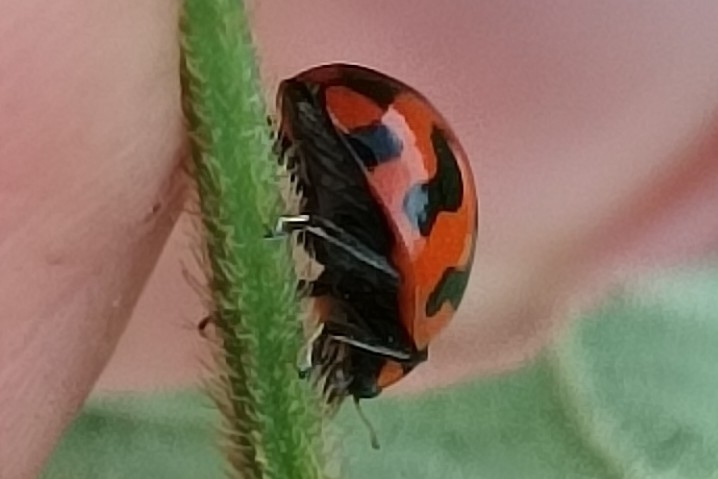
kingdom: Animalia
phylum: Arthropoda
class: Insecta
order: Coleoptera
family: Coccinellidae
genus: Coccinella
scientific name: Coccinella transversalis
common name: Transverse lady beetle
